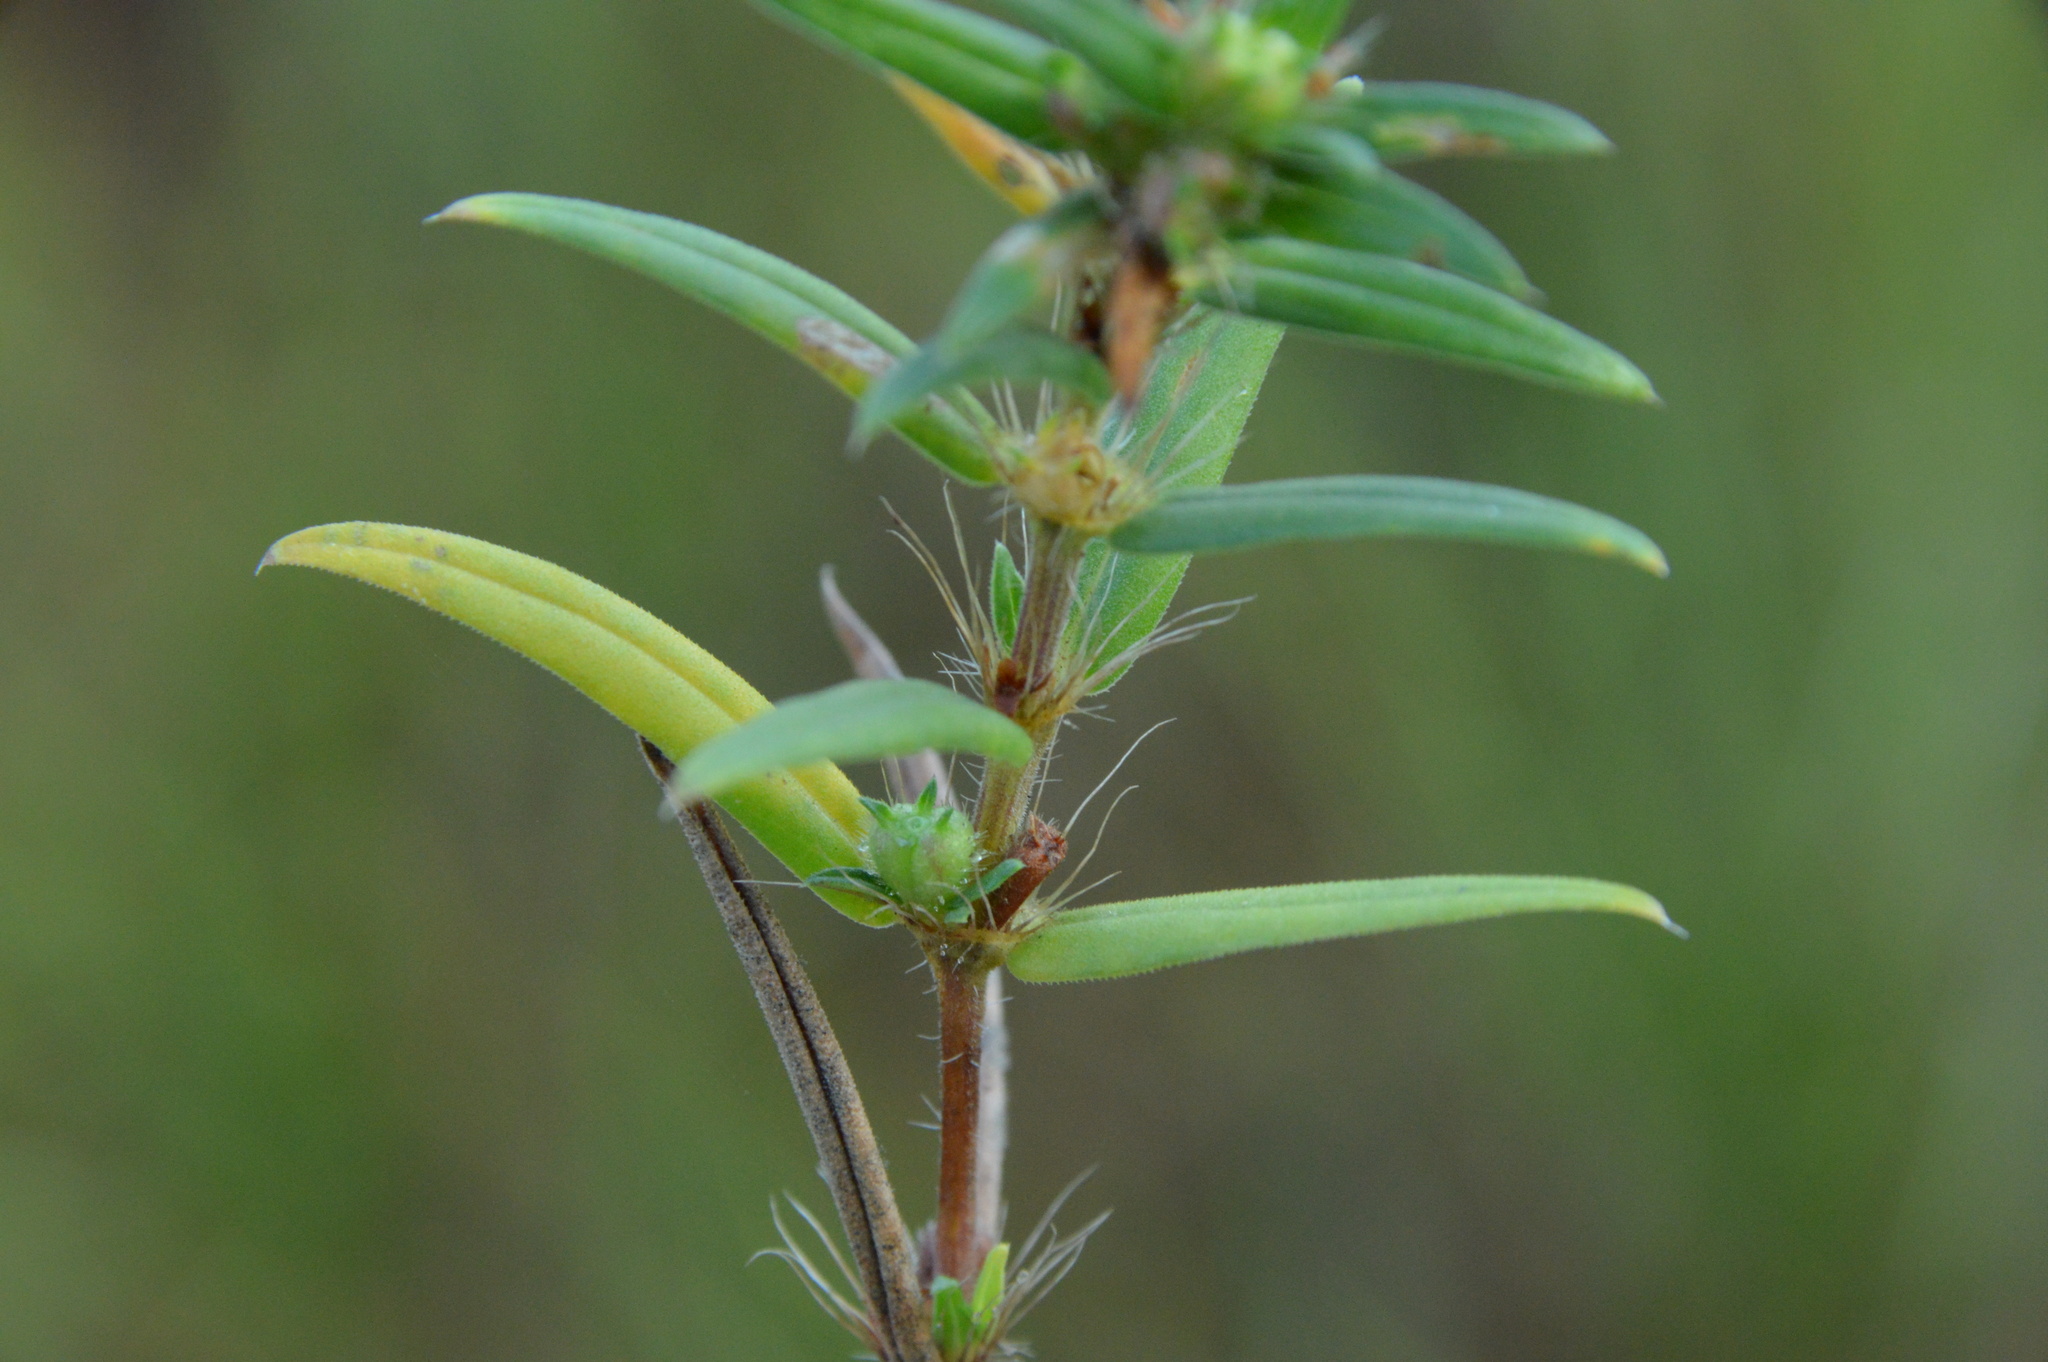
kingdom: Plantae
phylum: Tracheophyta
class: Magnoliopsida
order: Gentianales
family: Rubiaceae
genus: Hexasepalum
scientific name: Hexasepalum teres
